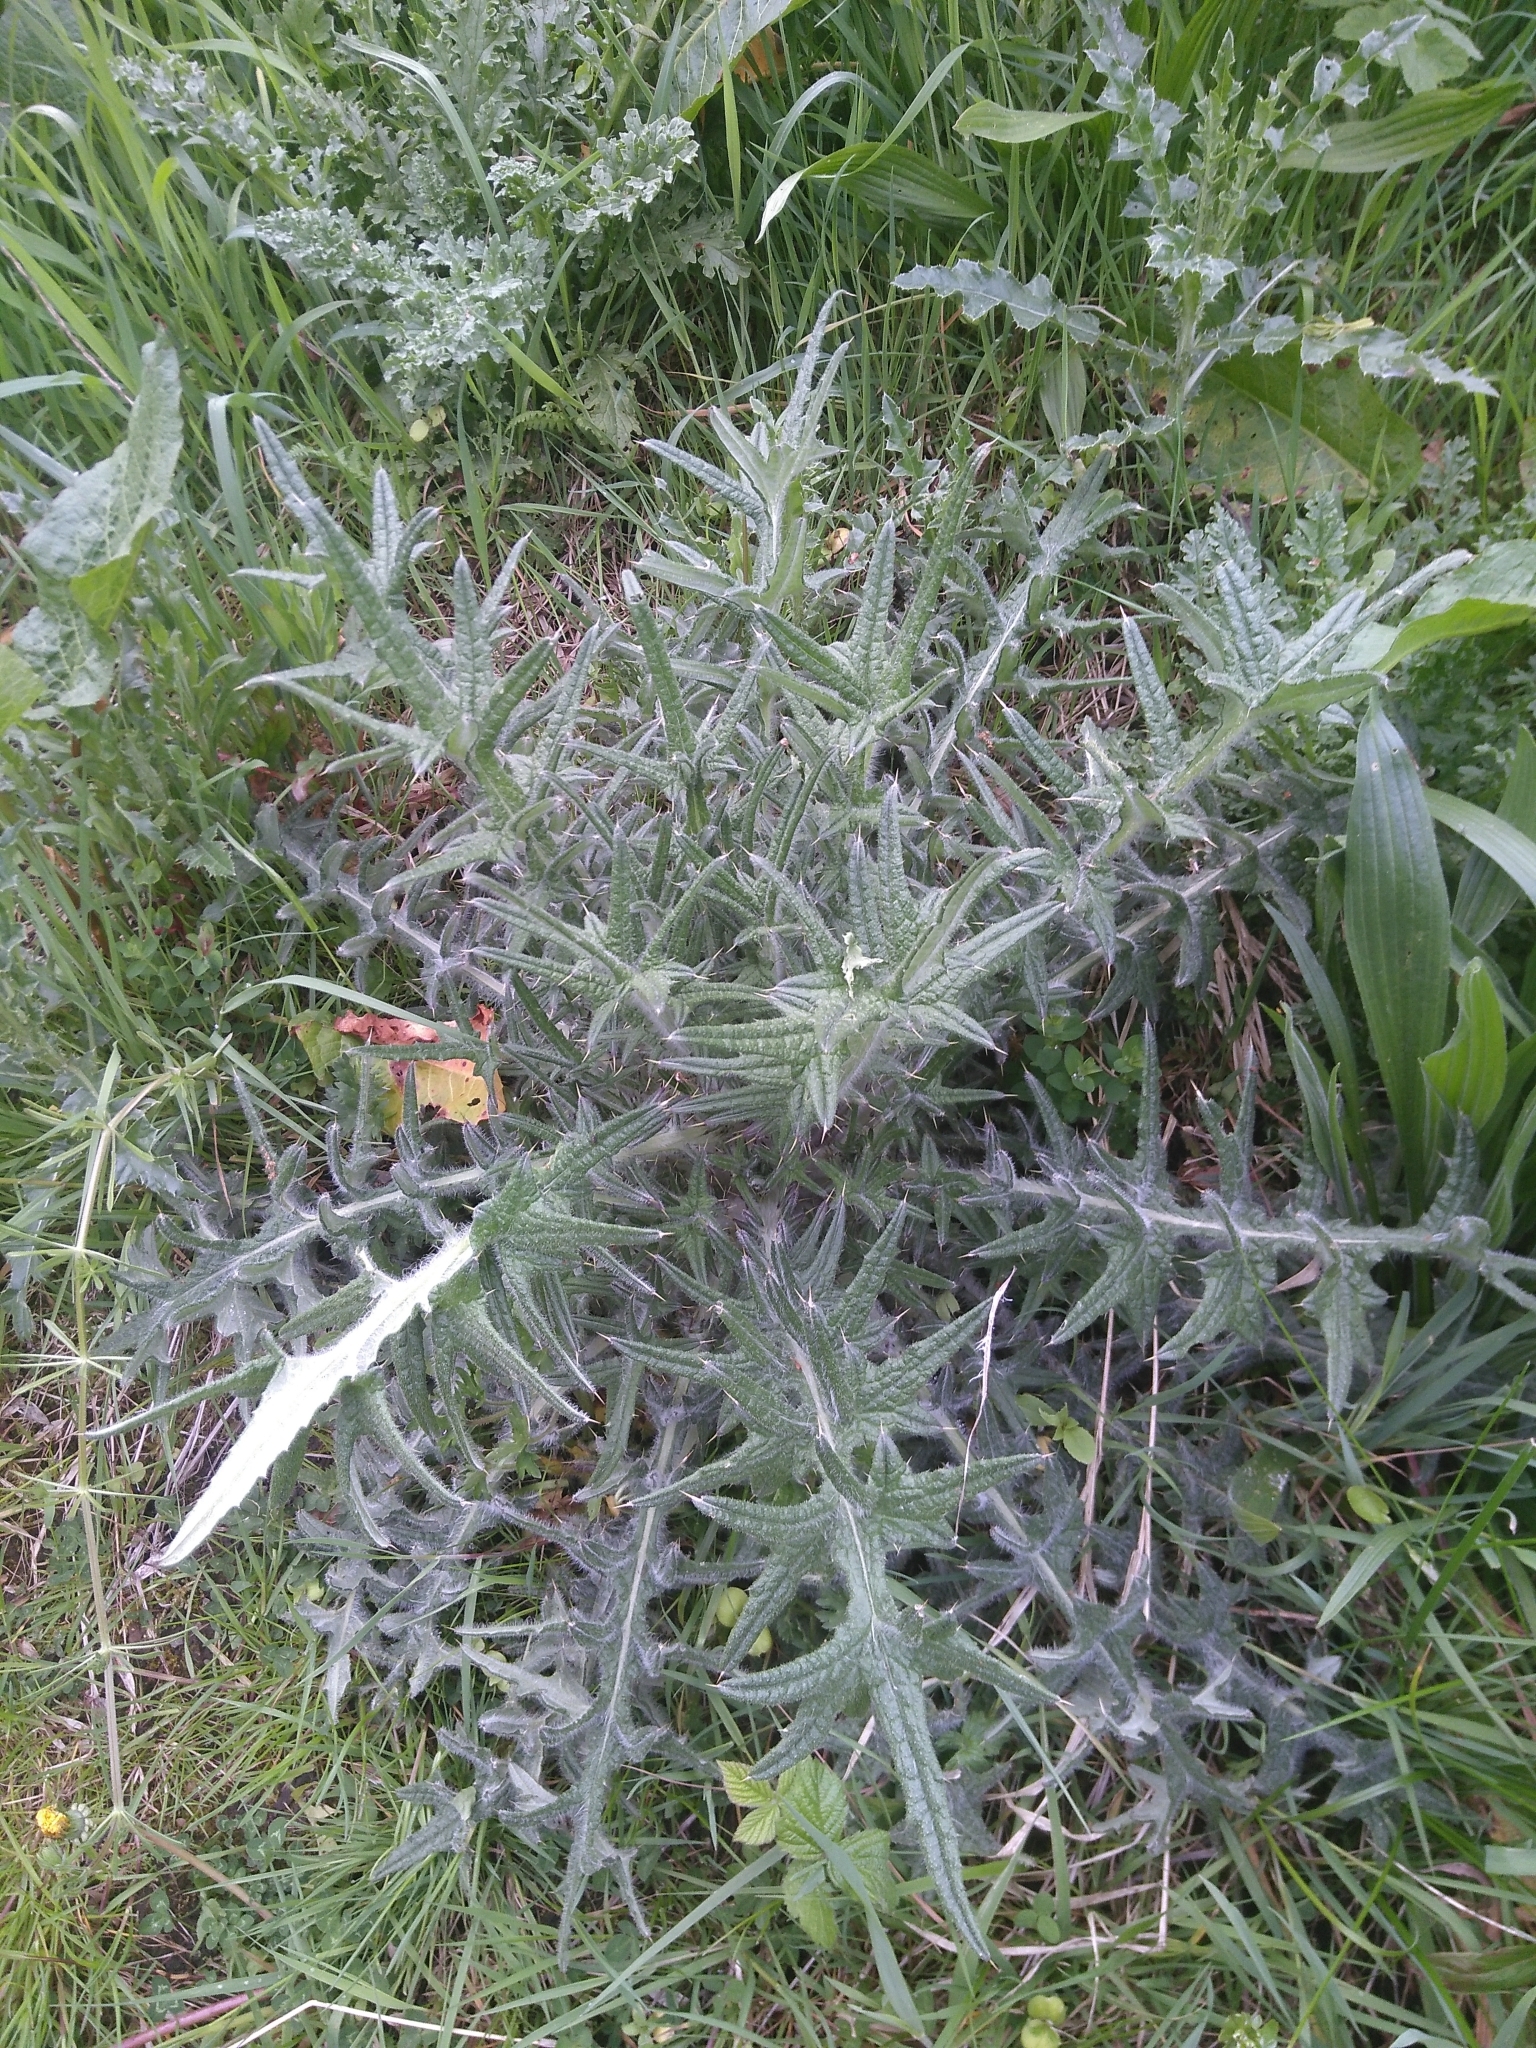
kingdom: Plantae
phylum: Tracheophyta
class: Magnoliopsida
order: Asterales
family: Asteraceae
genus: Cirsium
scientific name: Cirsium vulgare
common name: Bull thistle
